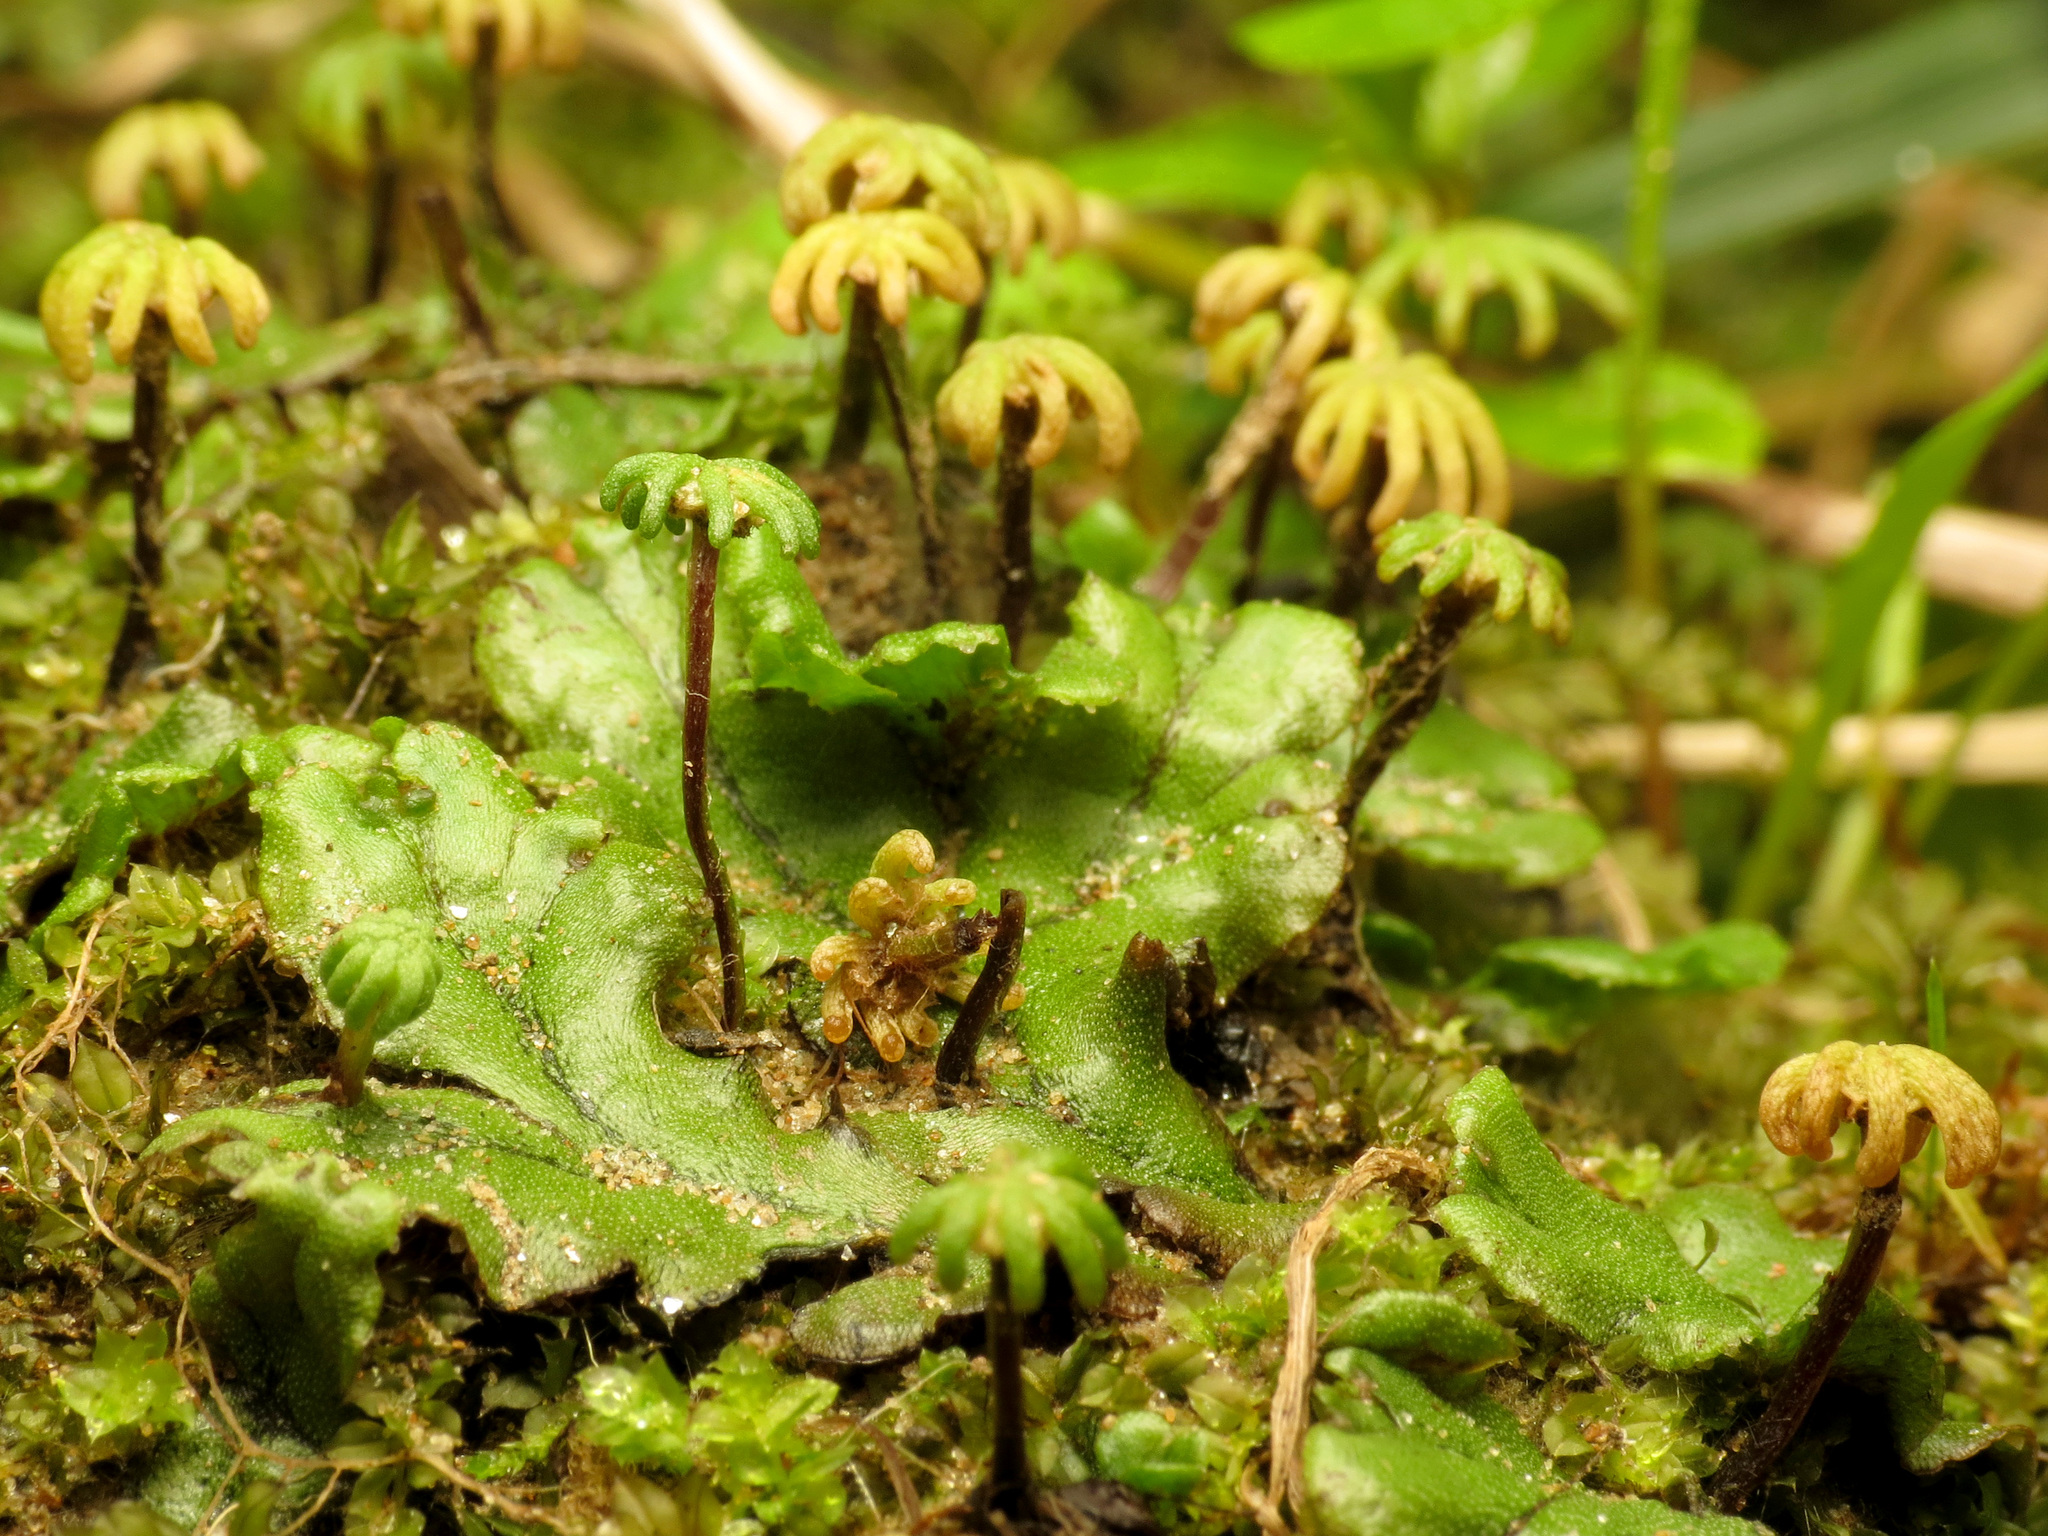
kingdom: Plantae
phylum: Marchantiophyta
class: Marchantiopsida
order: Marchantiales
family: Marchantiaceae
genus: Marchantia
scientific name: Marchantia polymorpha
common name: Common liverwort
